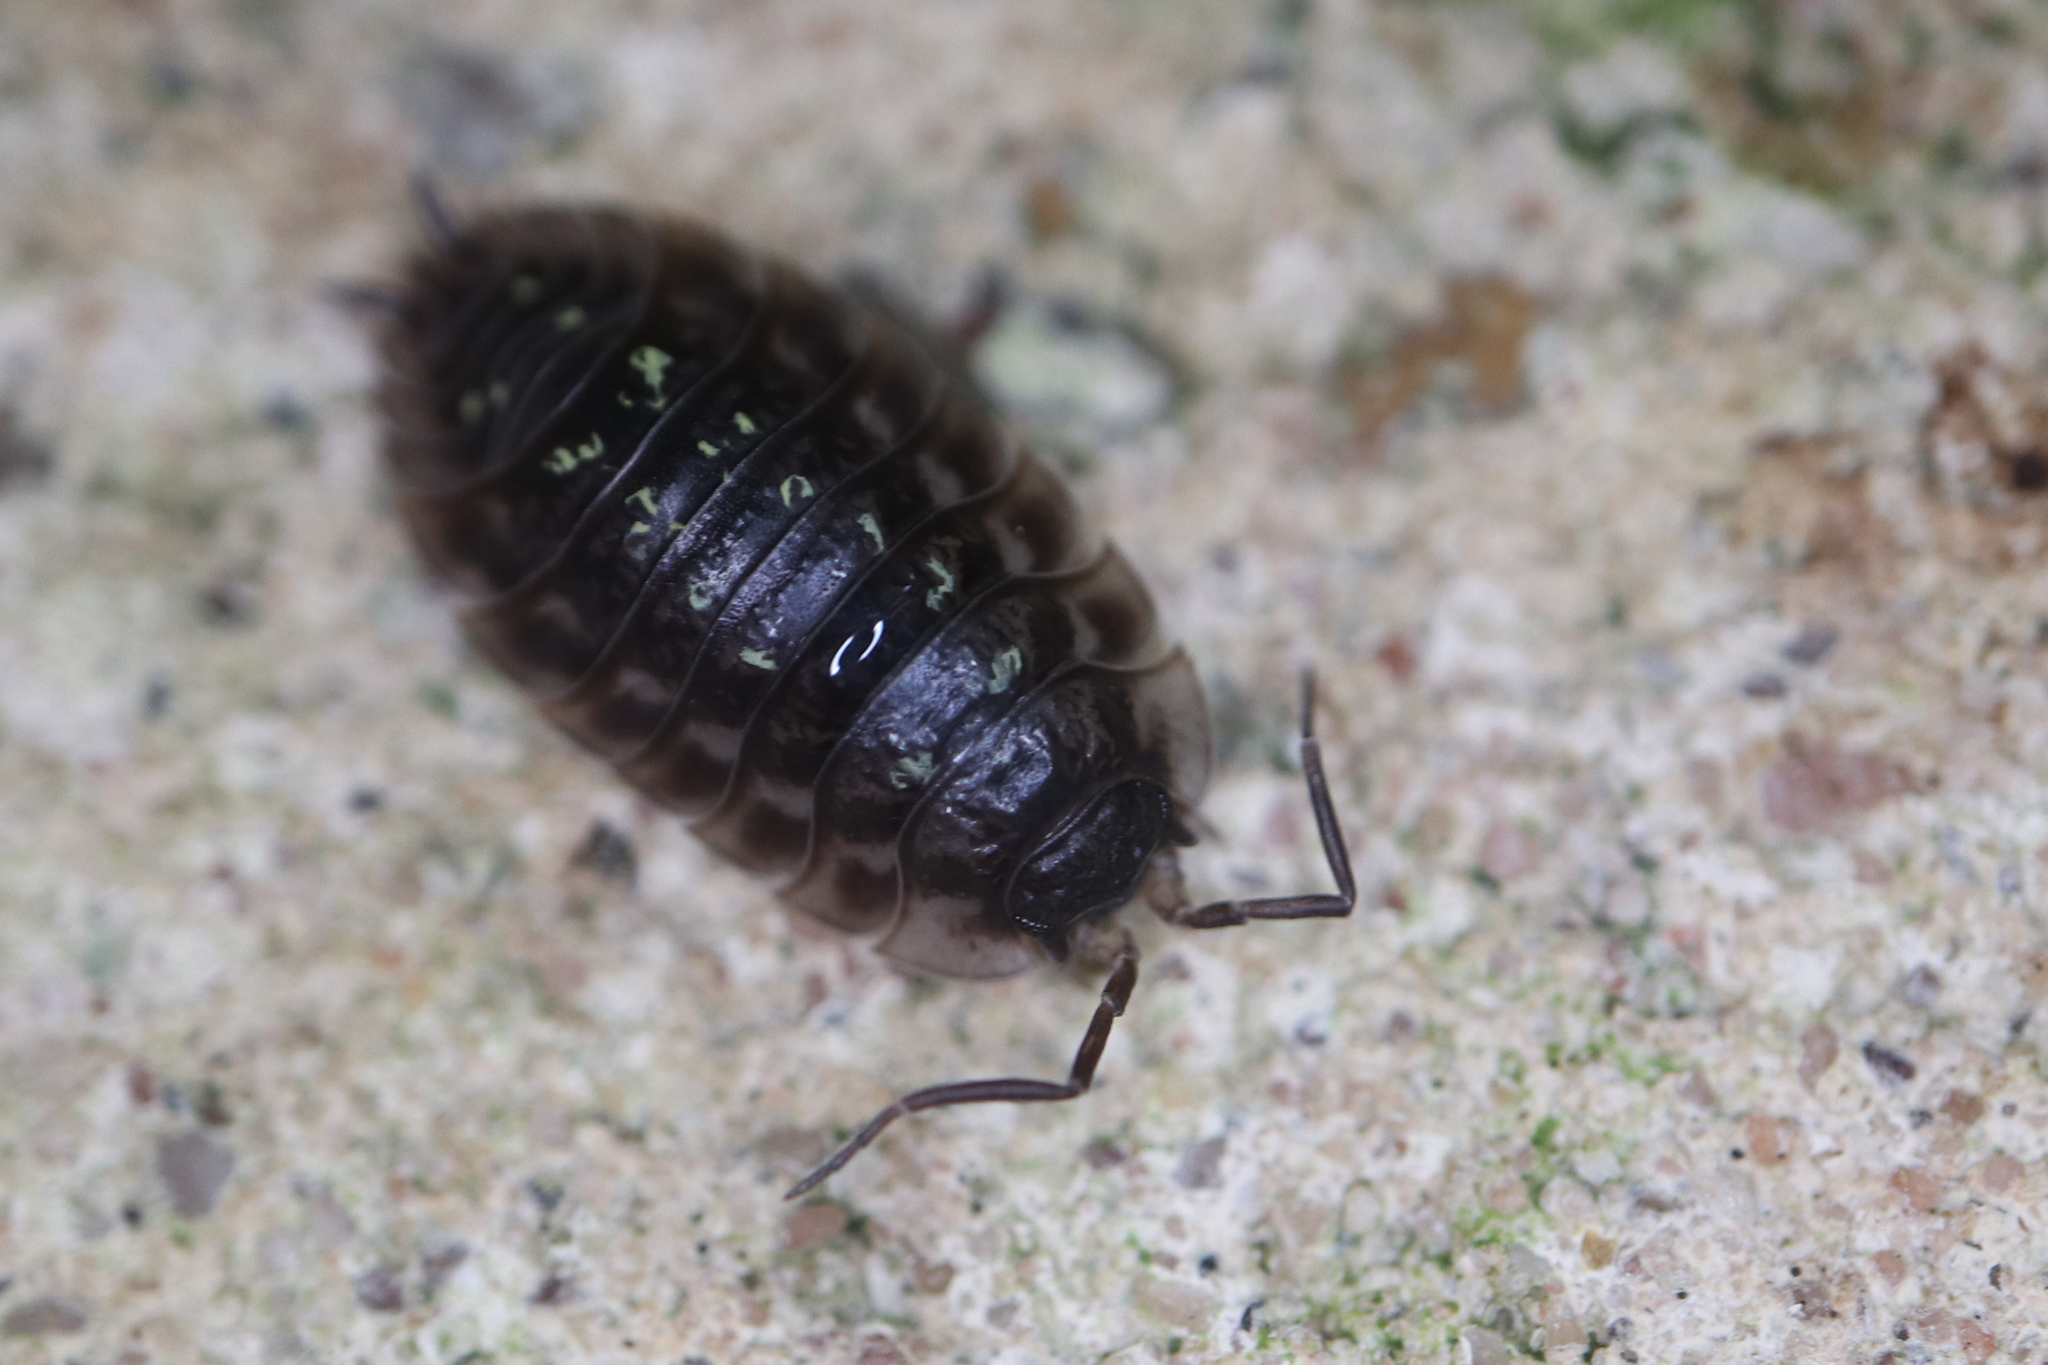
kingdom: Animalia
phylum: Arthropoda
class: Malacostraca
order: Isopoda
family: Oniscidae
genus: Oniscus
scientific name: Oniscus asellus
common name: Common shiny woodlouse
